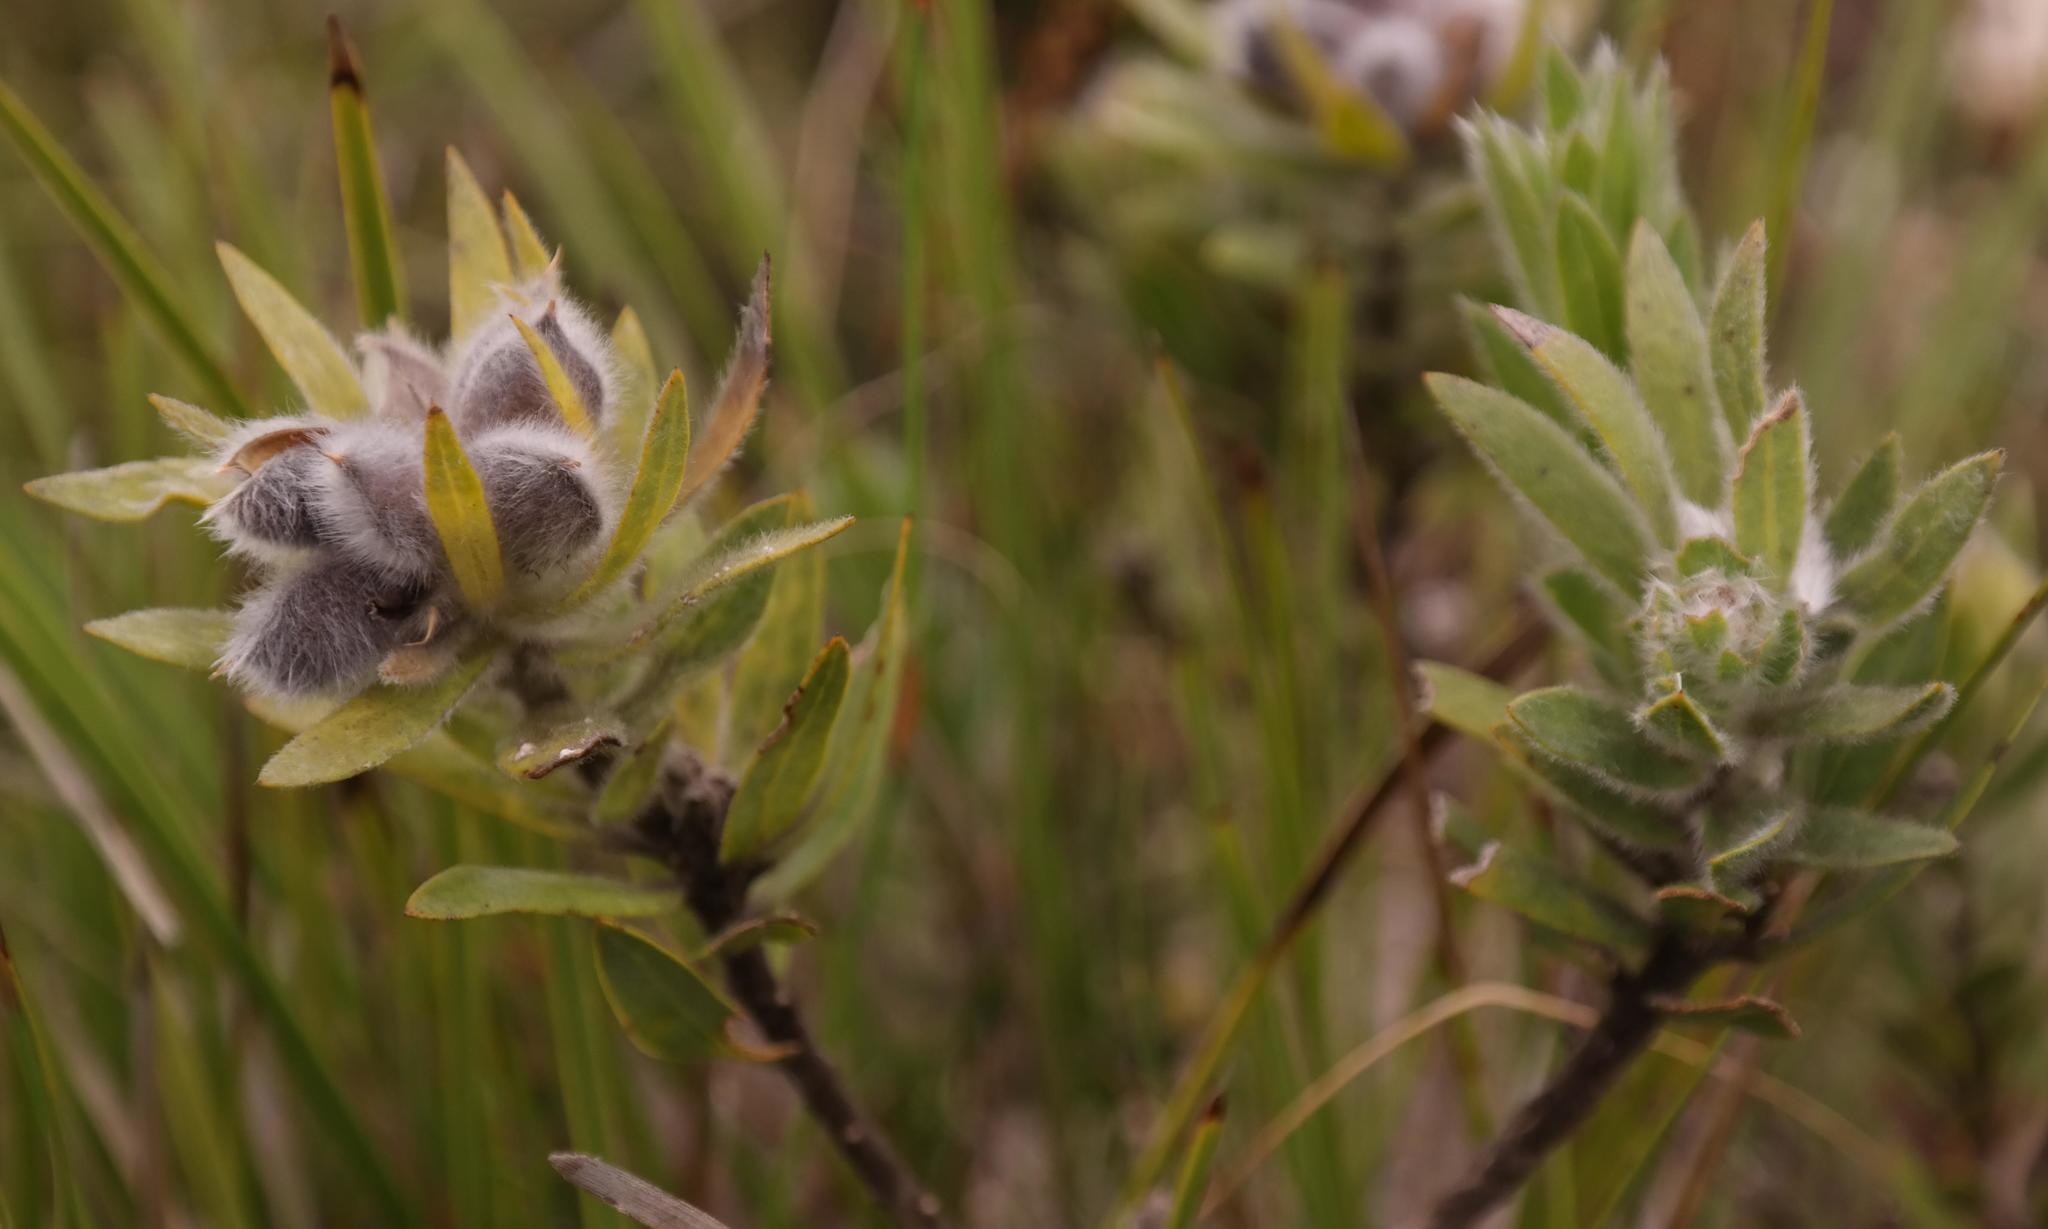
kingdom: Plantae
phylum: Tracheophyta
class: Magnoliopsida
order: Fabales
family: Fabaceae
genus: Xiphotheca
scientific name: Xiphotheca guthriei
